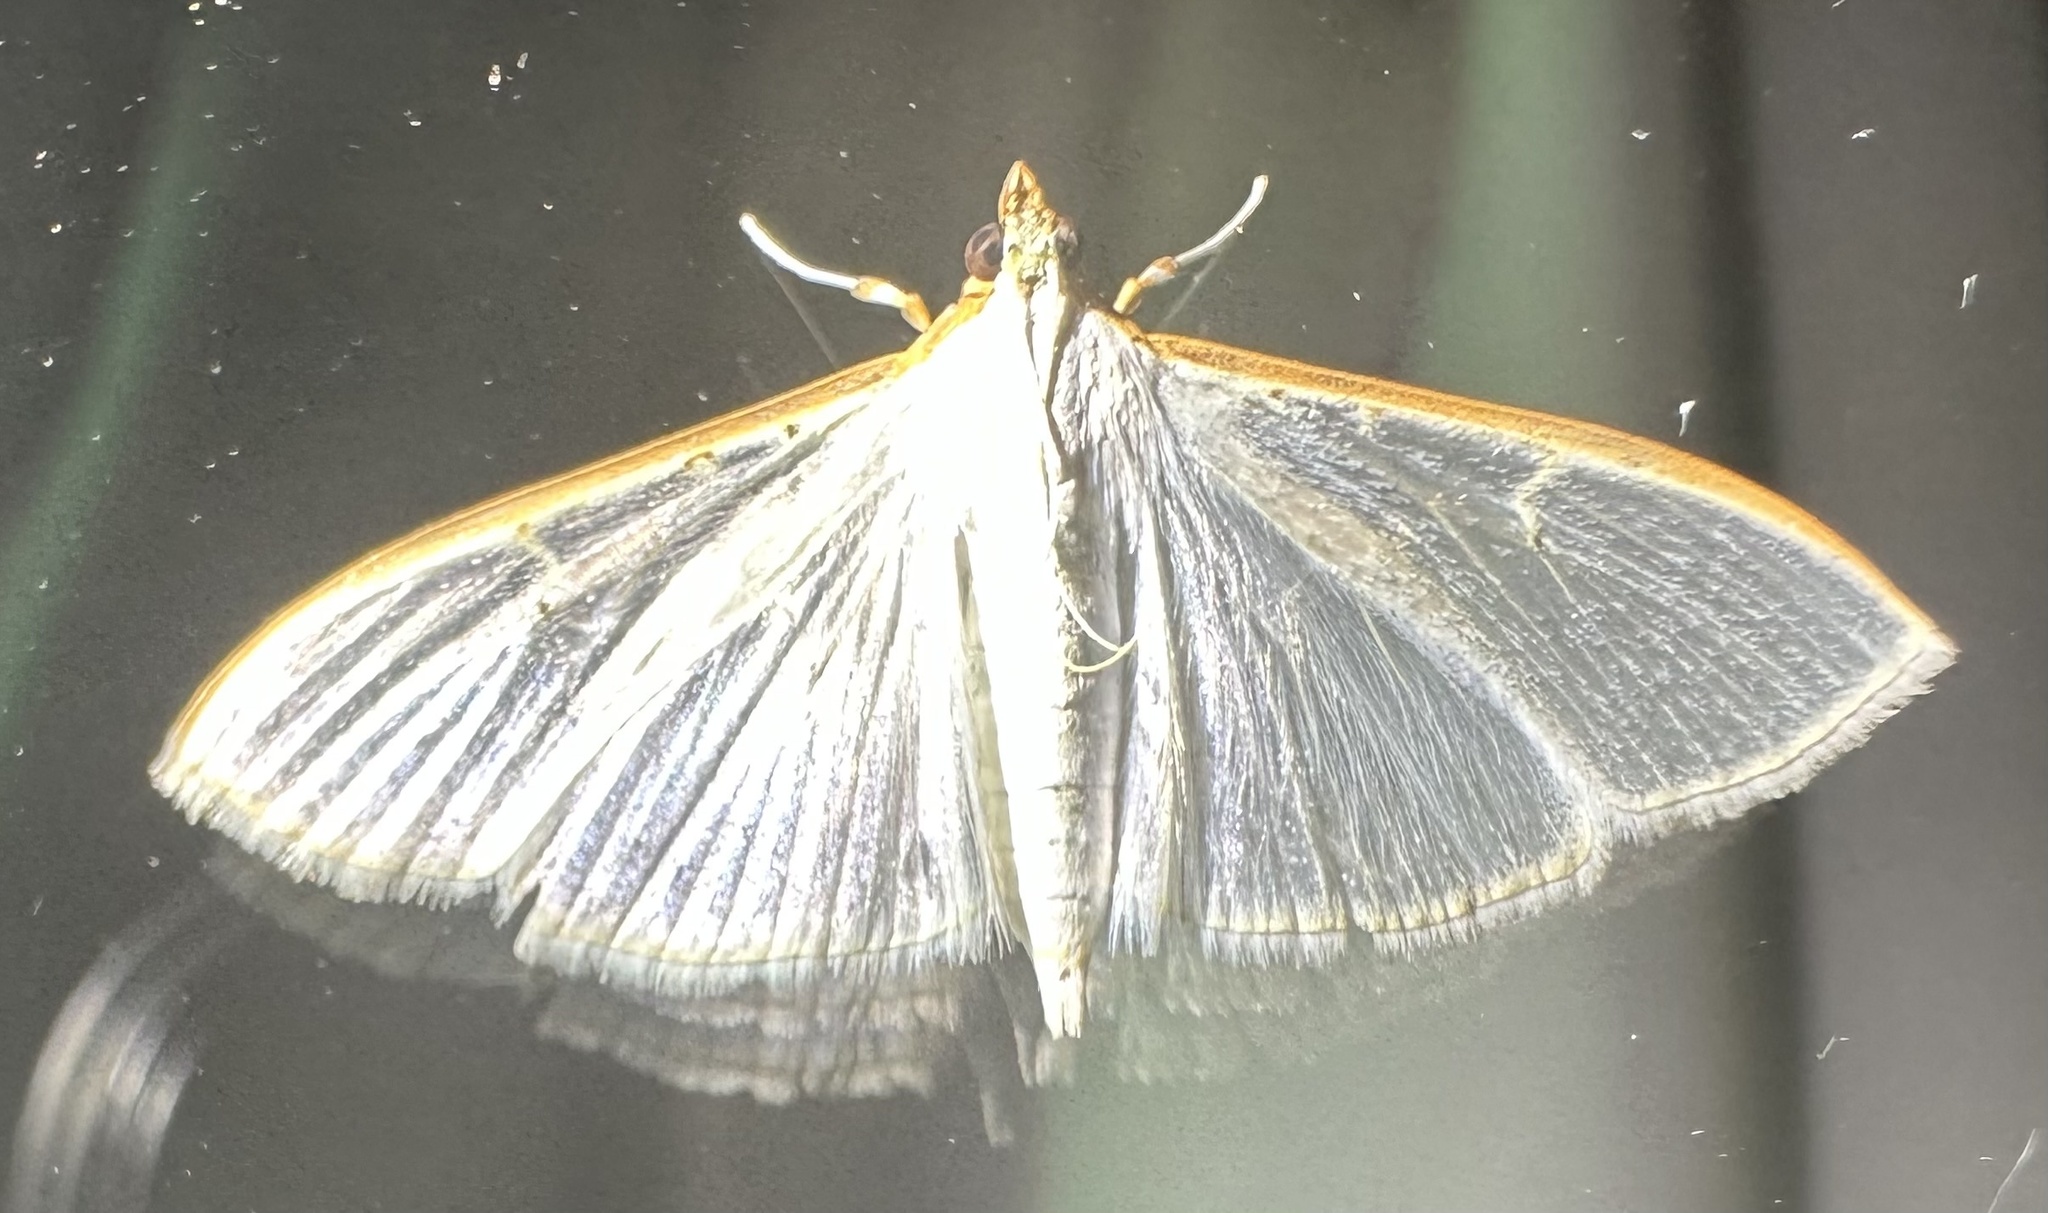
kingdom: Animalia
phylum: Arthropoda
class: Insecta
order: Lepidoptera
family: Crambidae
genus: Palpita
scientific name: Palpita vitrealis
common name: Olive-tree pearl
